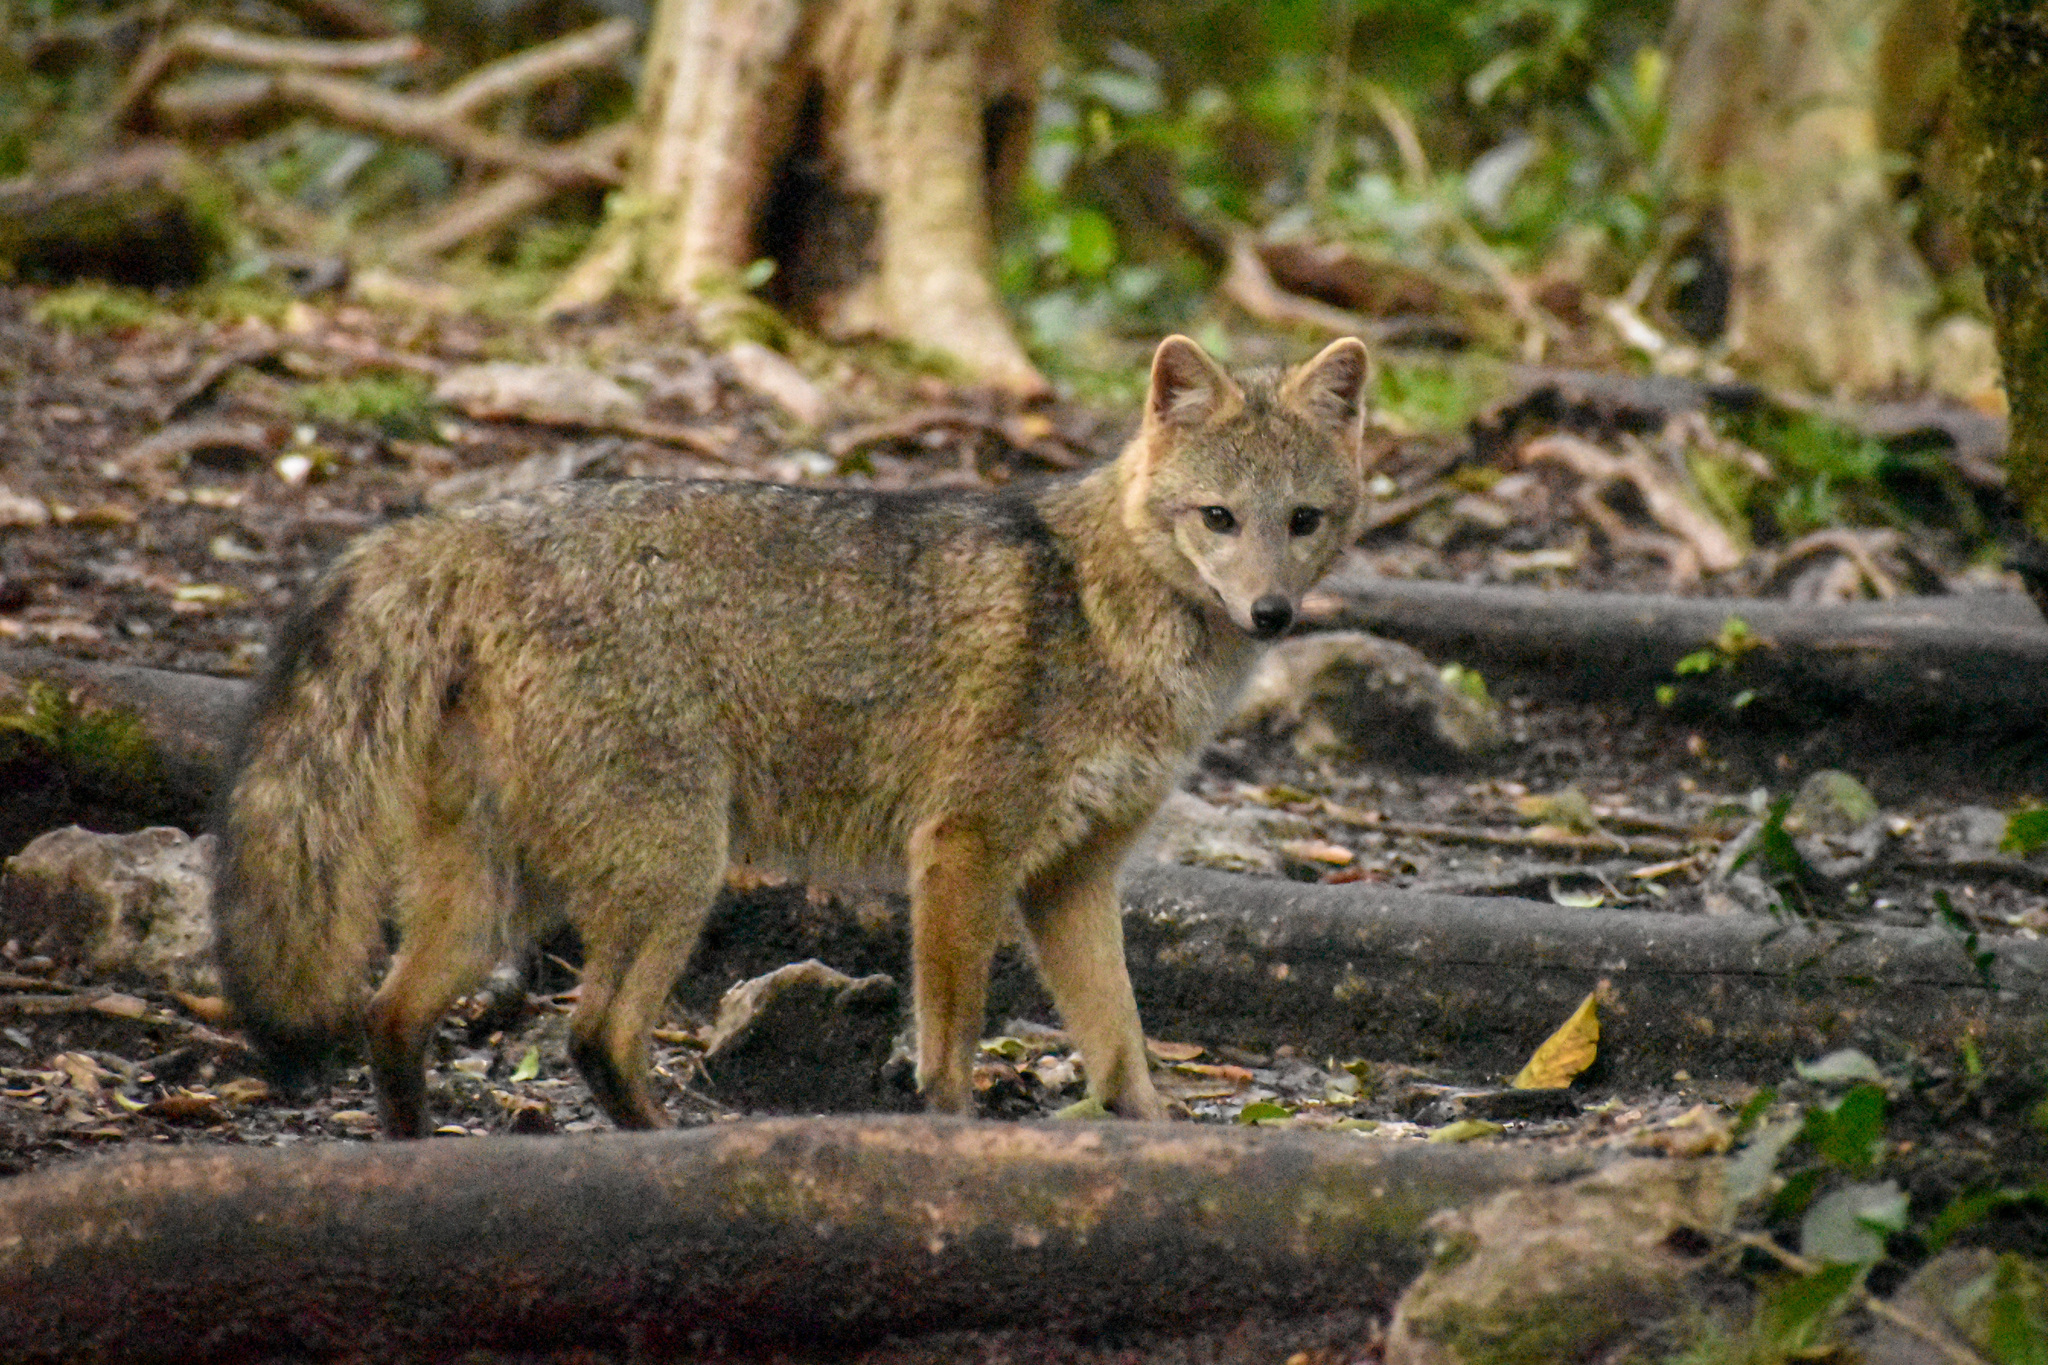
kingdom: Animalia
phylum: Chordata
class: Mammalia
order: Carnivora
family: Canidae
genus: Cerdocyon
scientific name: Cerdocyon thous
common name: Crab-eating fox
